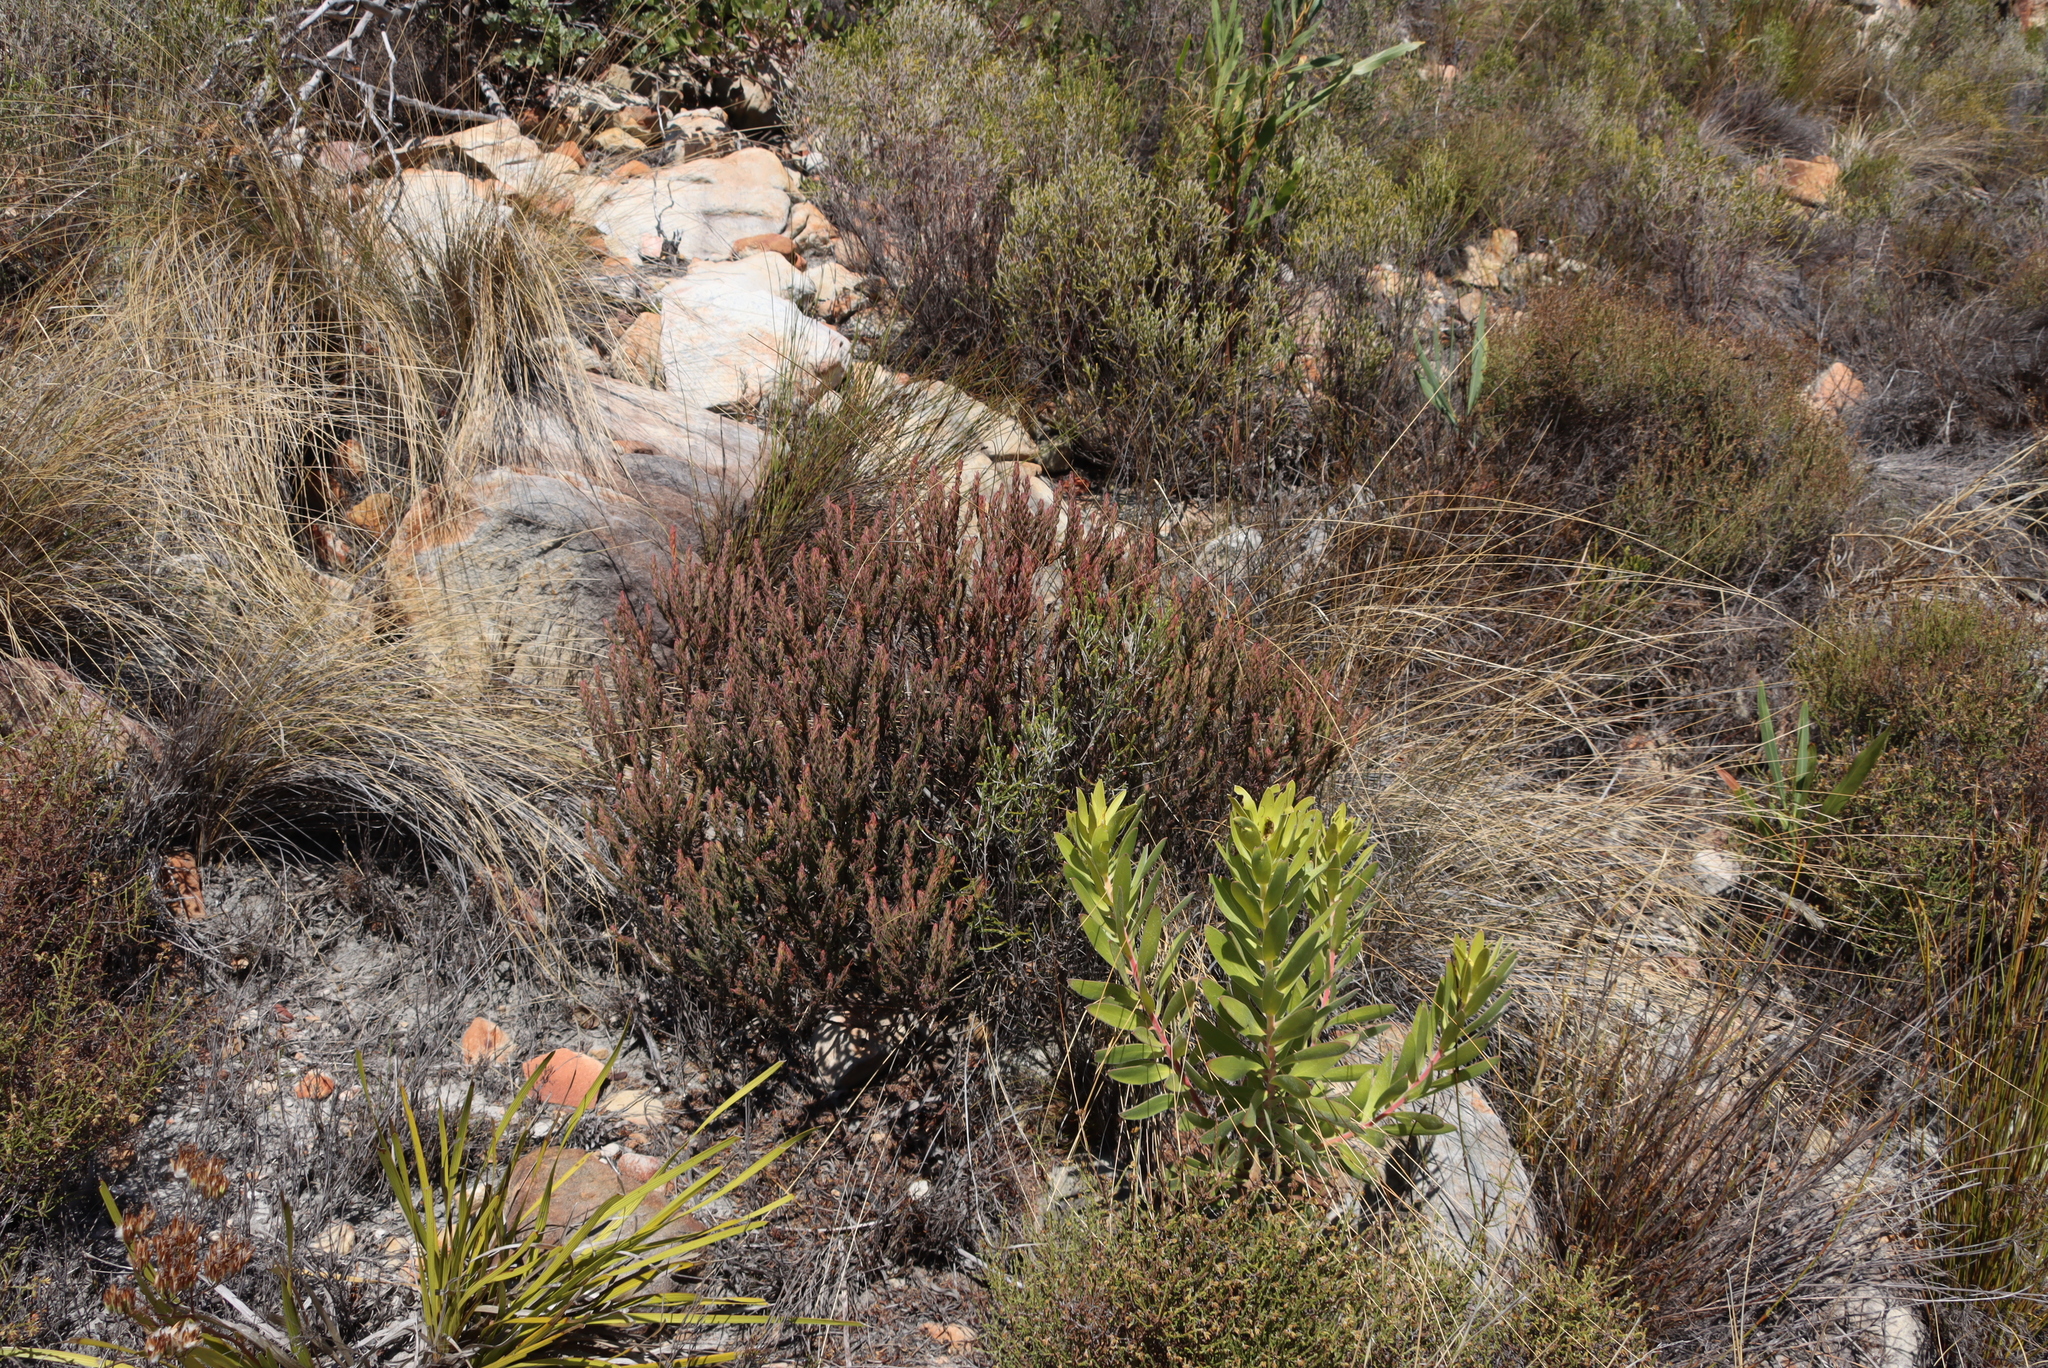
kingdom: Plantae
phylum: Tracheophyta
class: Magnoliopsida
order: Ericales
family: Ericaceae
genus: Erica
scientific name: Erica plukenetii
